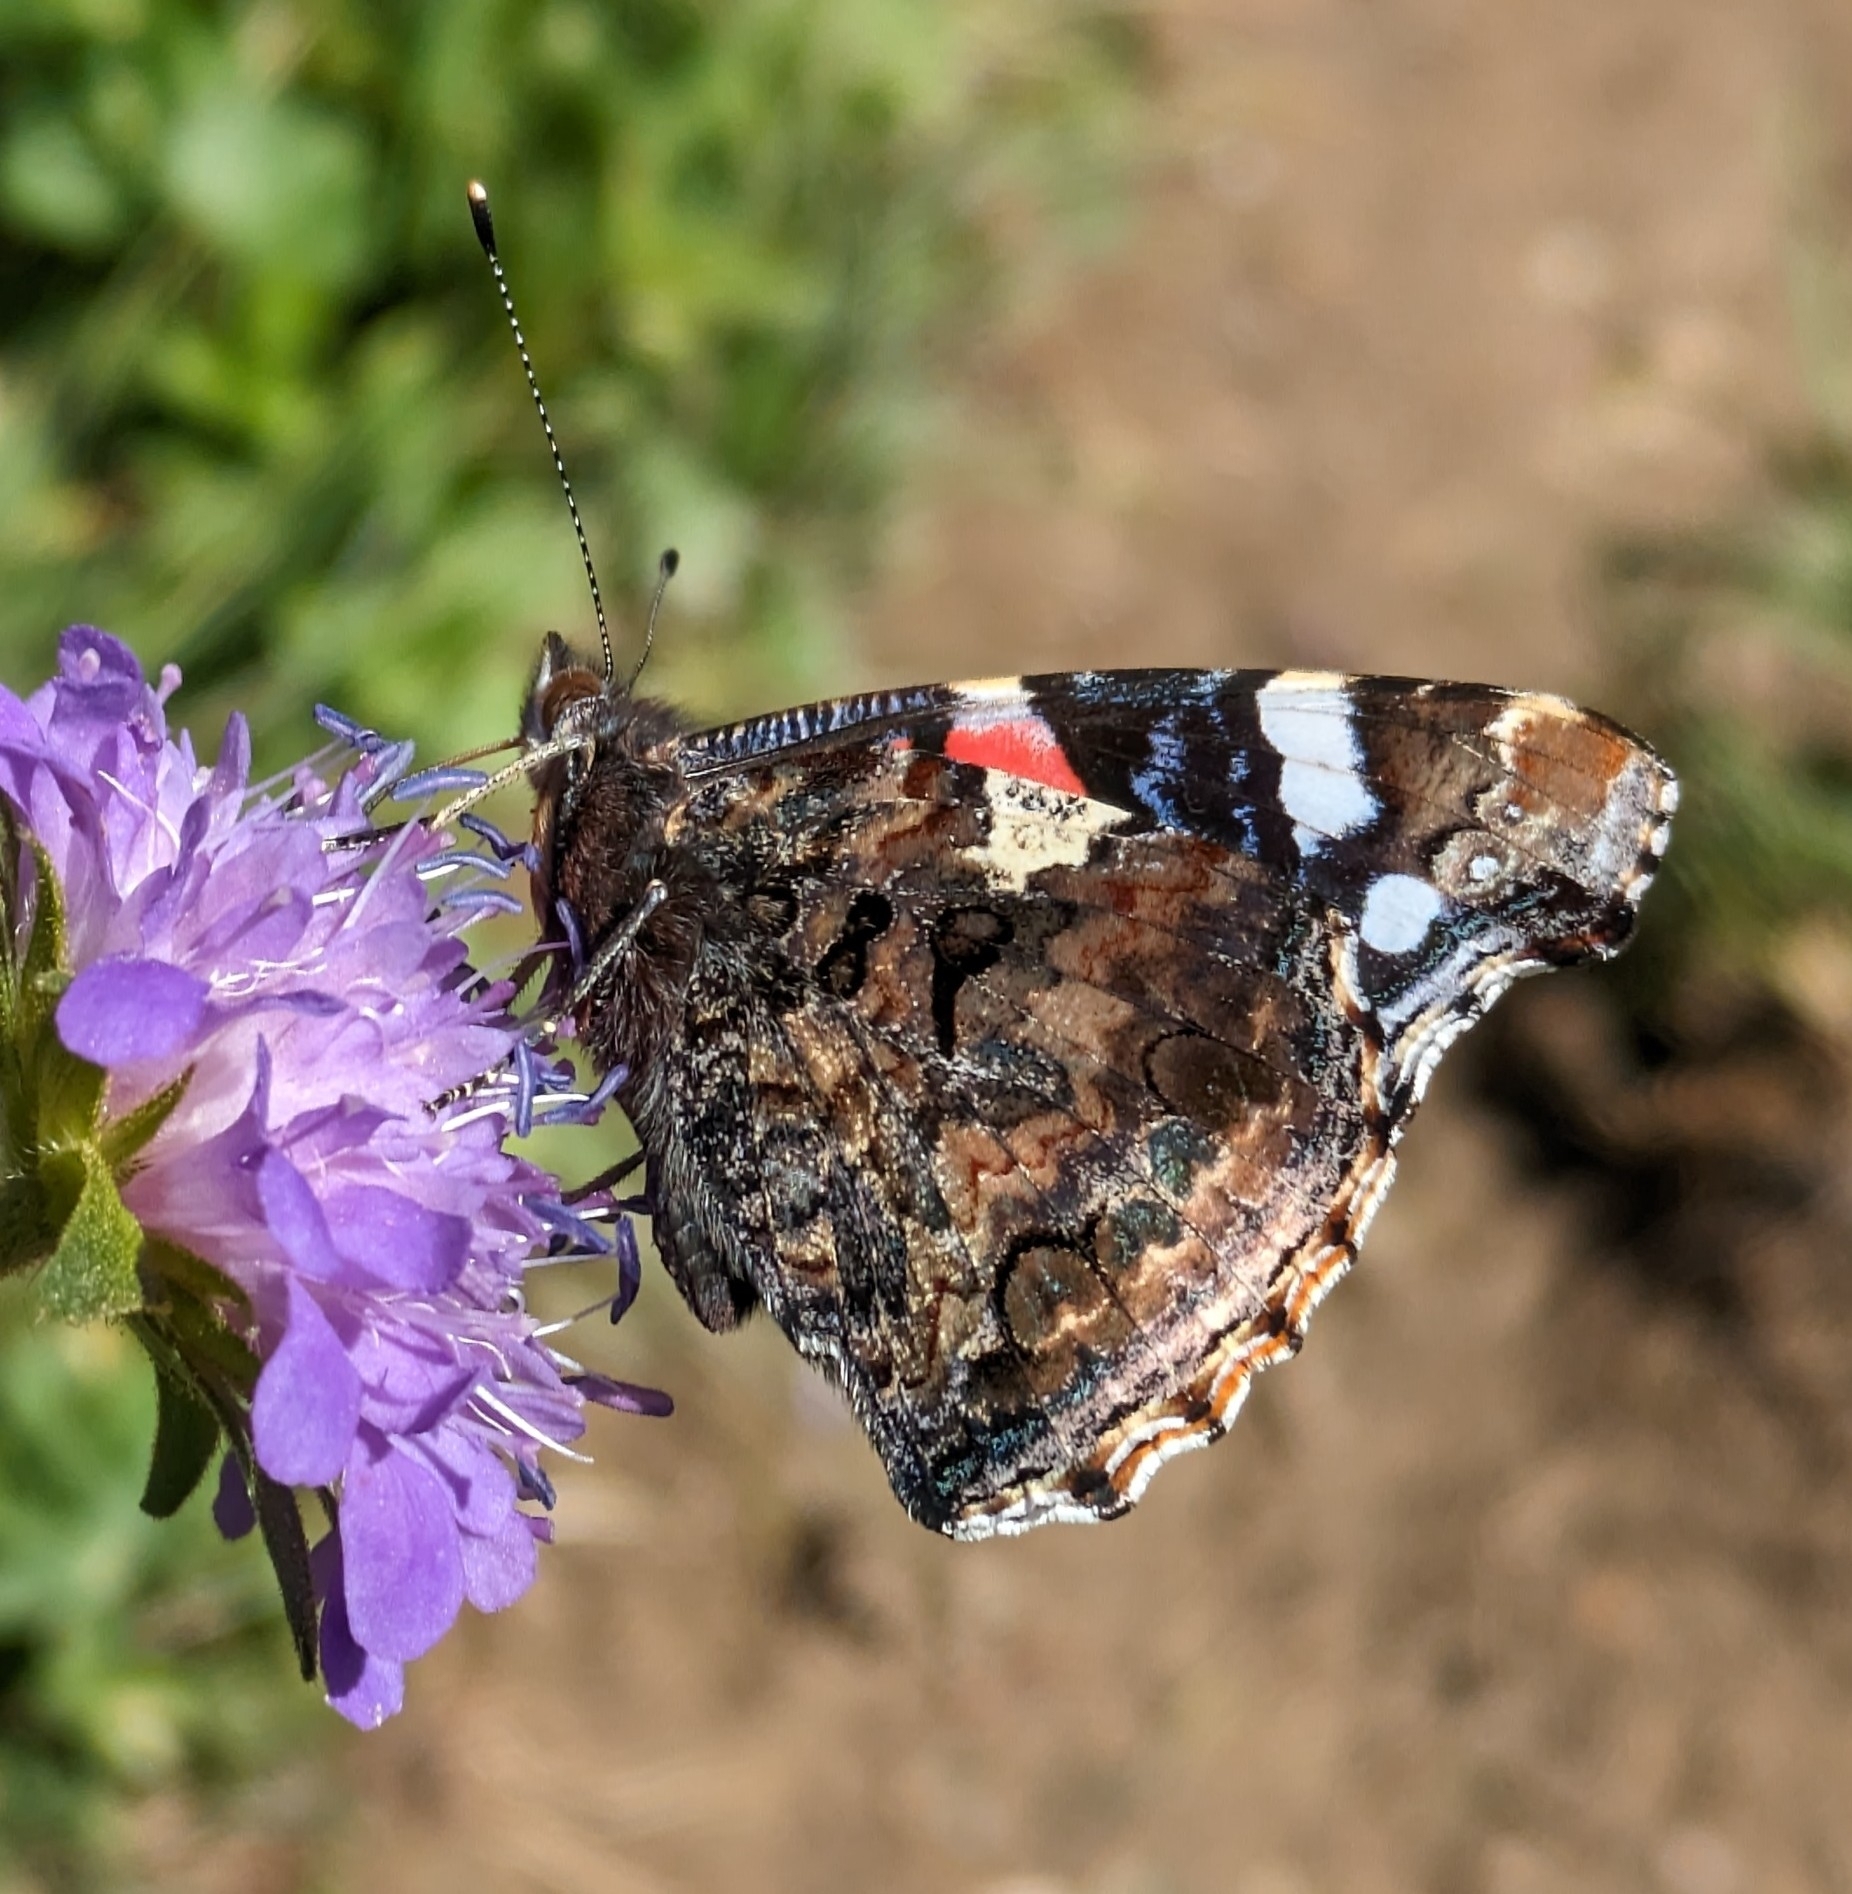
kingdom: Animalia
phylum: Arthropoda
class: Insecta
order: Lepidoptera
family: Nymphalidae
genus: Vanessa
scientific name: Vanessa atalanta
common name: Red admiral
